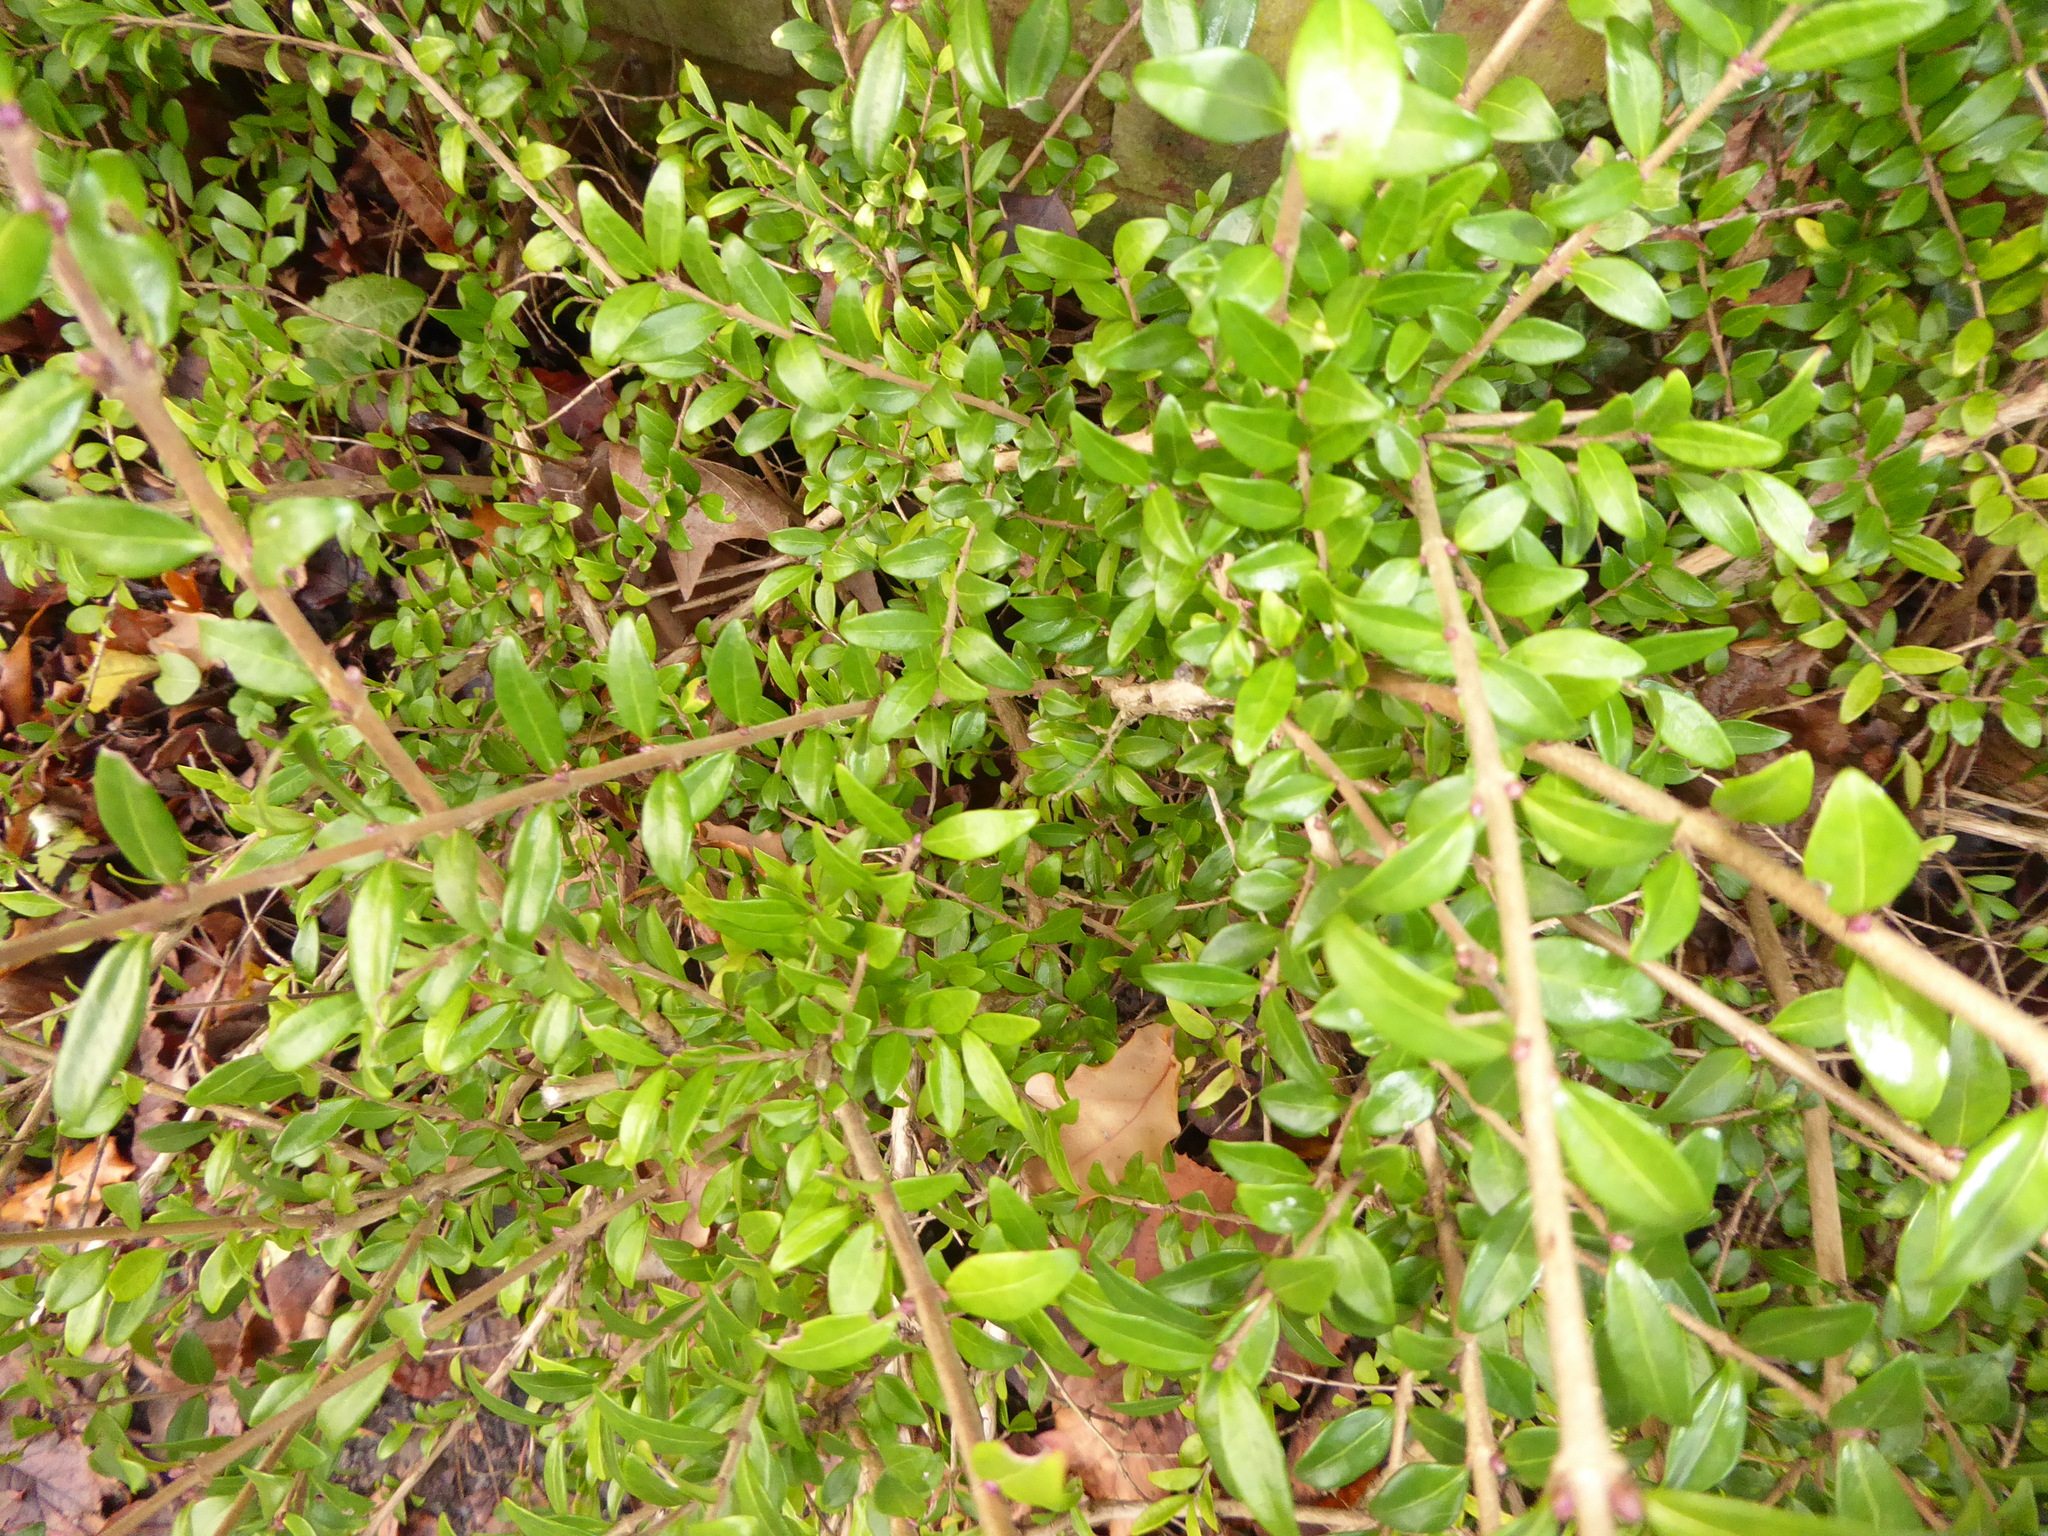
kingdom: Plantae
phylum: Tracheophyta
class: Magnoliopsida
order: Dipsacales
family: Caprifoliaceae
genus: Lonicera
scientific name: Lonicera ligustrina
